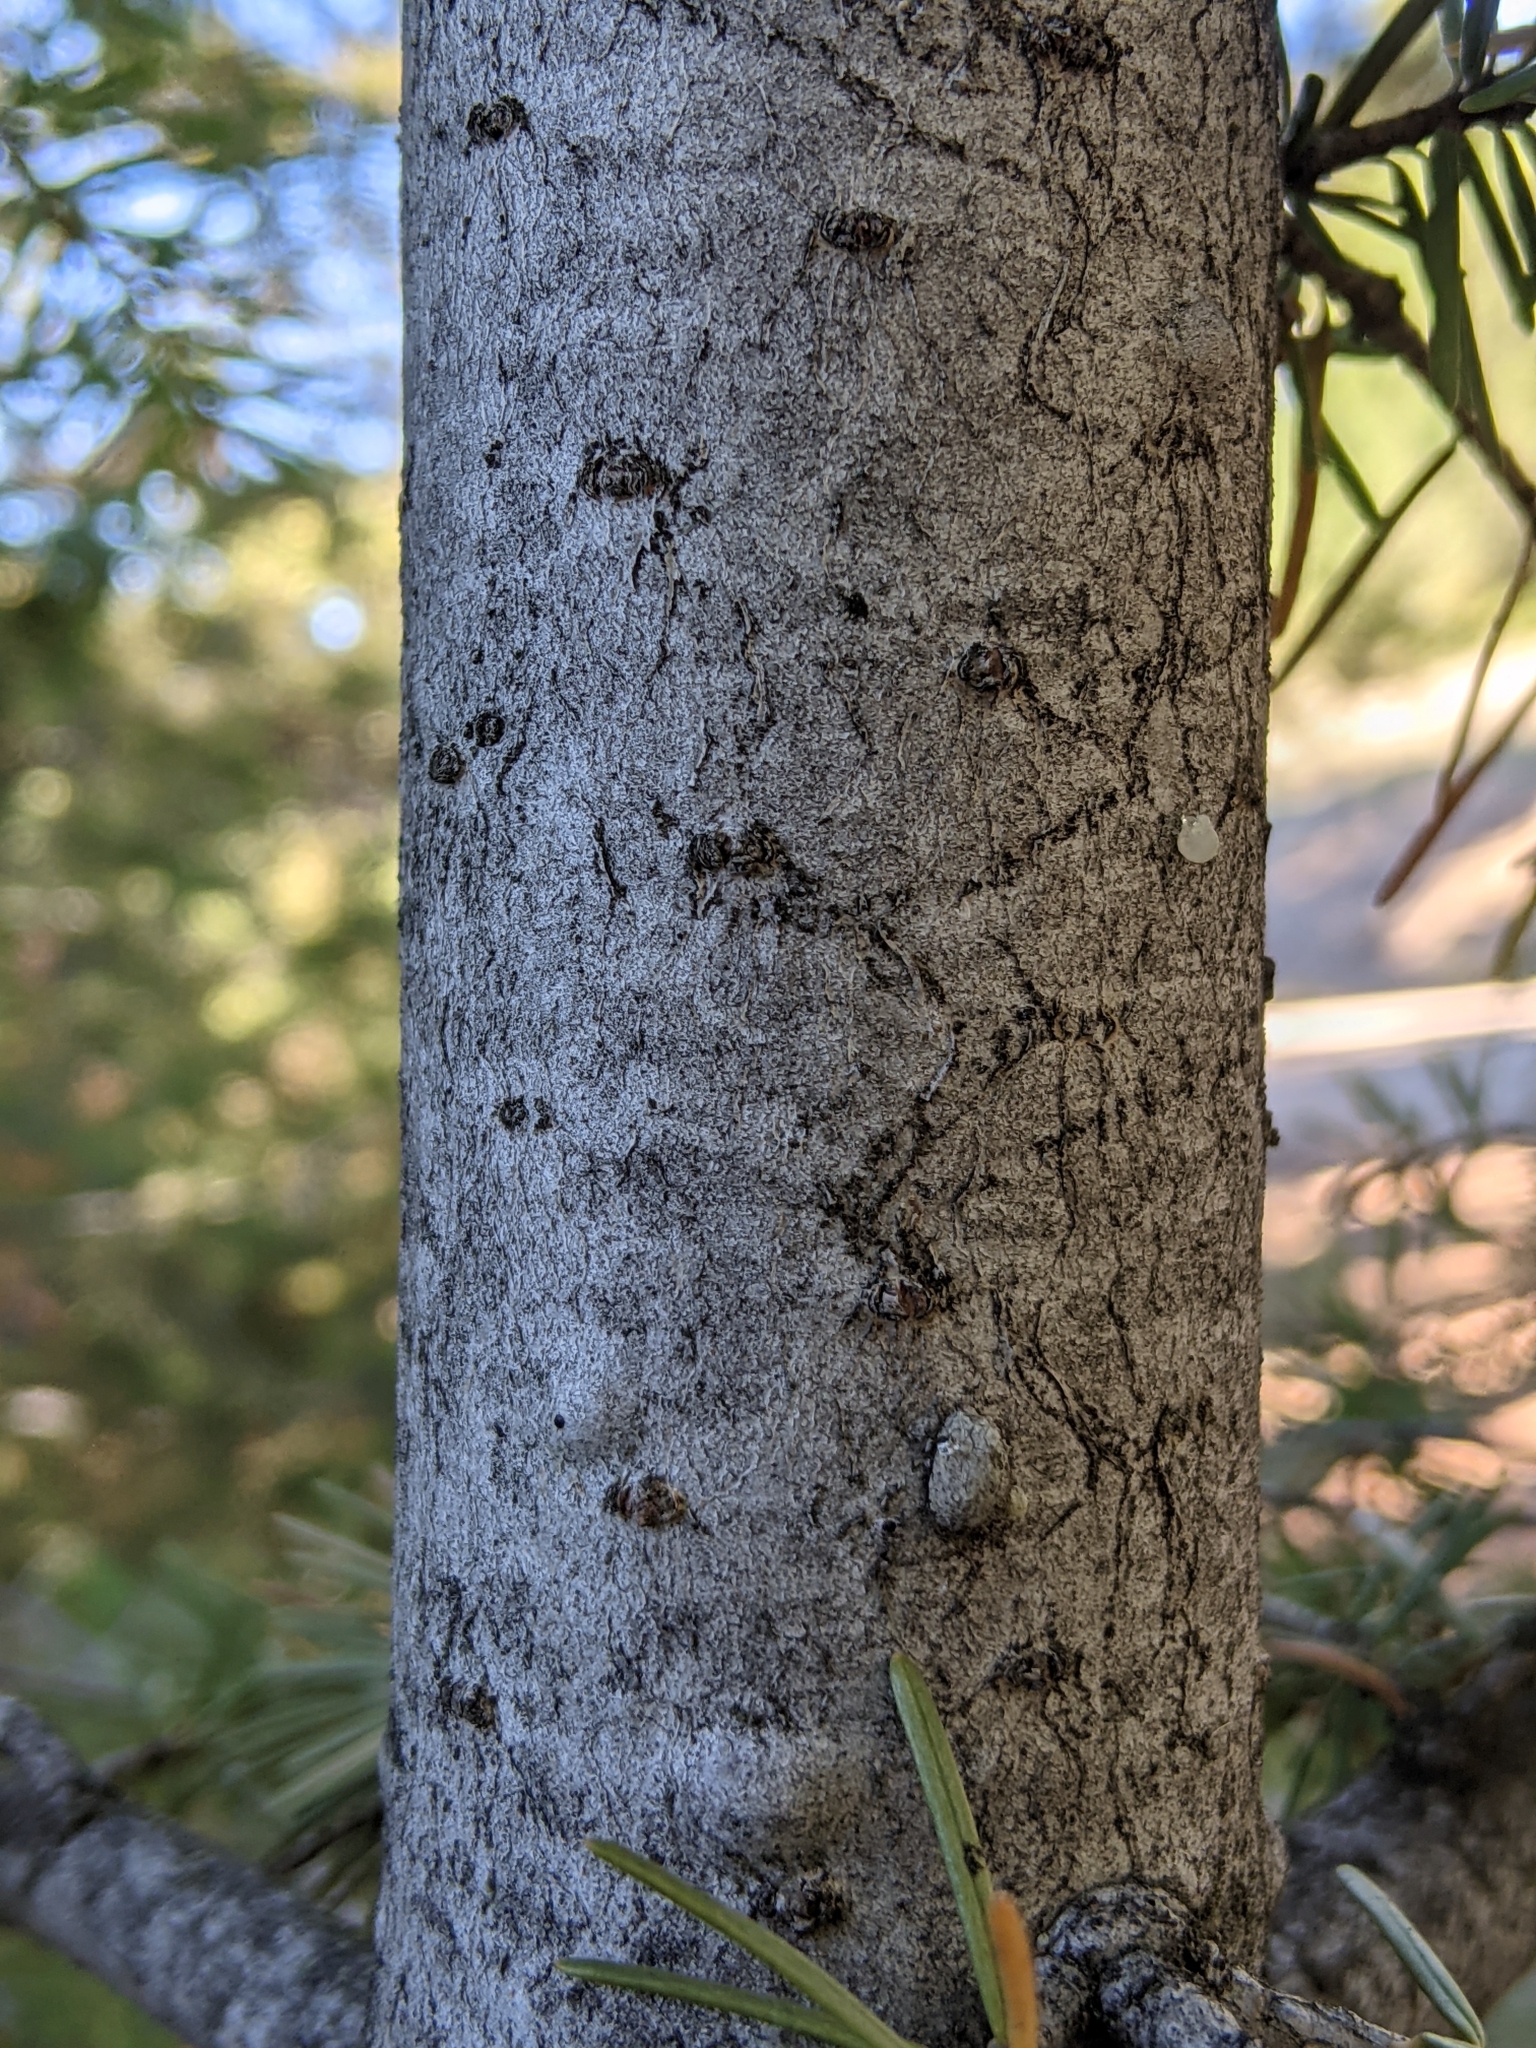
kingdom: Plantae
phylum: Tracheophyta
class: Pinopsida
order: Pinales
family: Pinaceae
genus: Pseudotsuga
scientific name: Pseudotsuga menziesii
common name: Douglas fir
